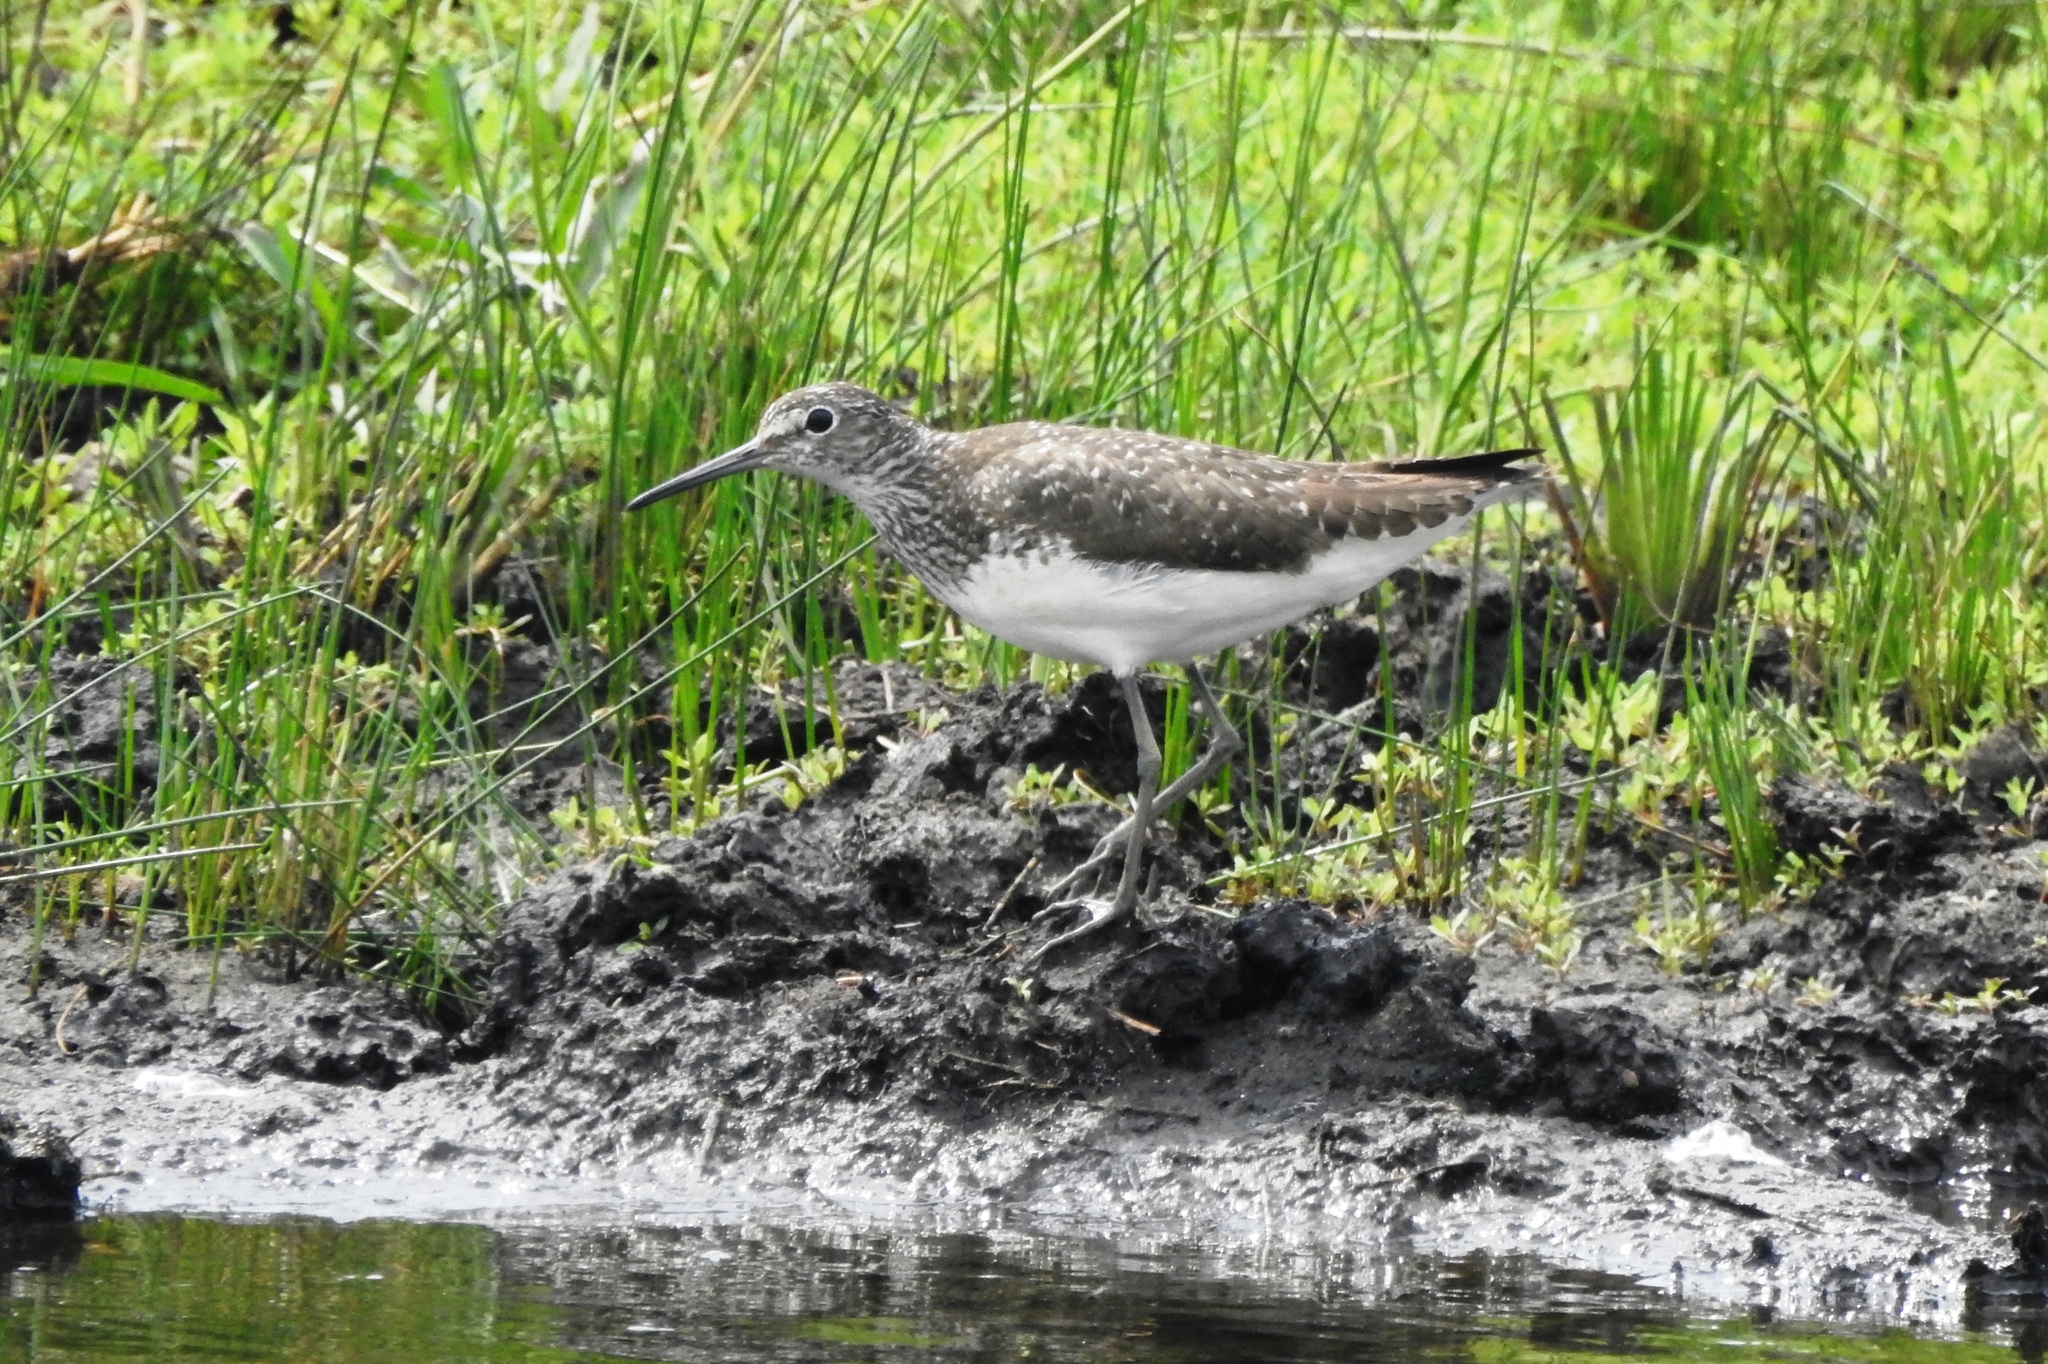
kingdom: Animalia
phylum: Chordata
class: Aves
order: Charadriiformes
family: Scolopacidae
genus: Tringa
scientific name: Tringa ochropus
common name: Green sandpiper
